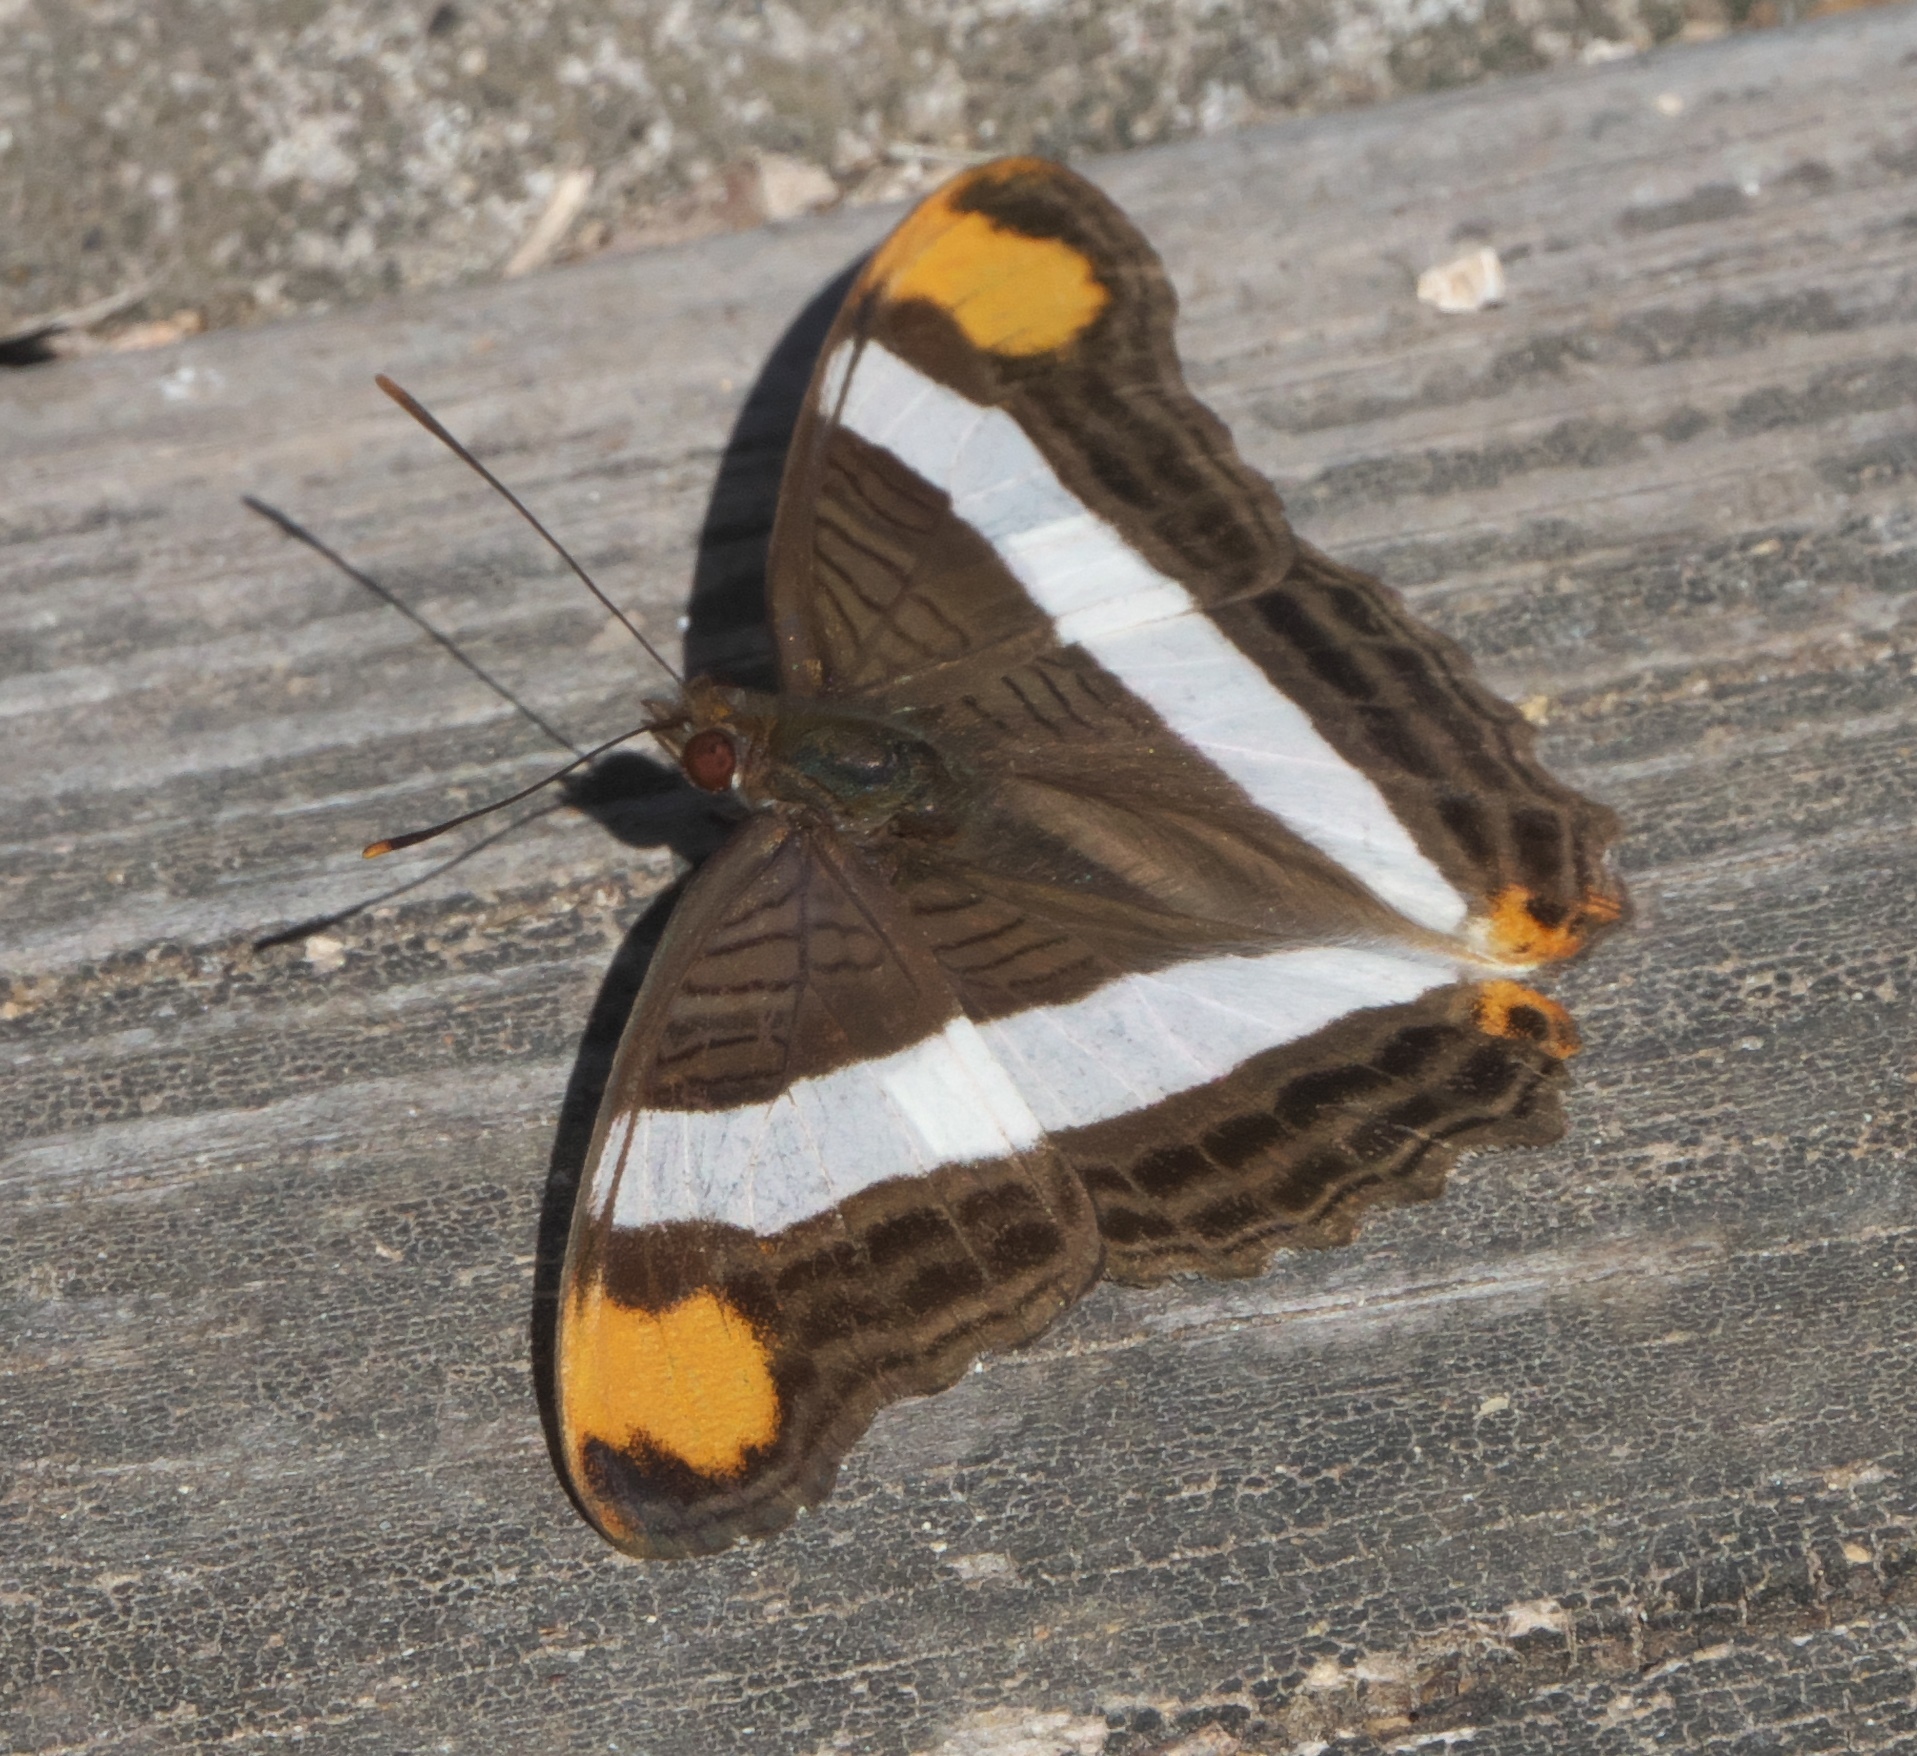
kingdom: Animalia
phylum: Arthropoda
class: Insecta
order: Lepidoptera
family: Nymphalidae
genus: Limenitis
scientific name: Limenitis fessonia
